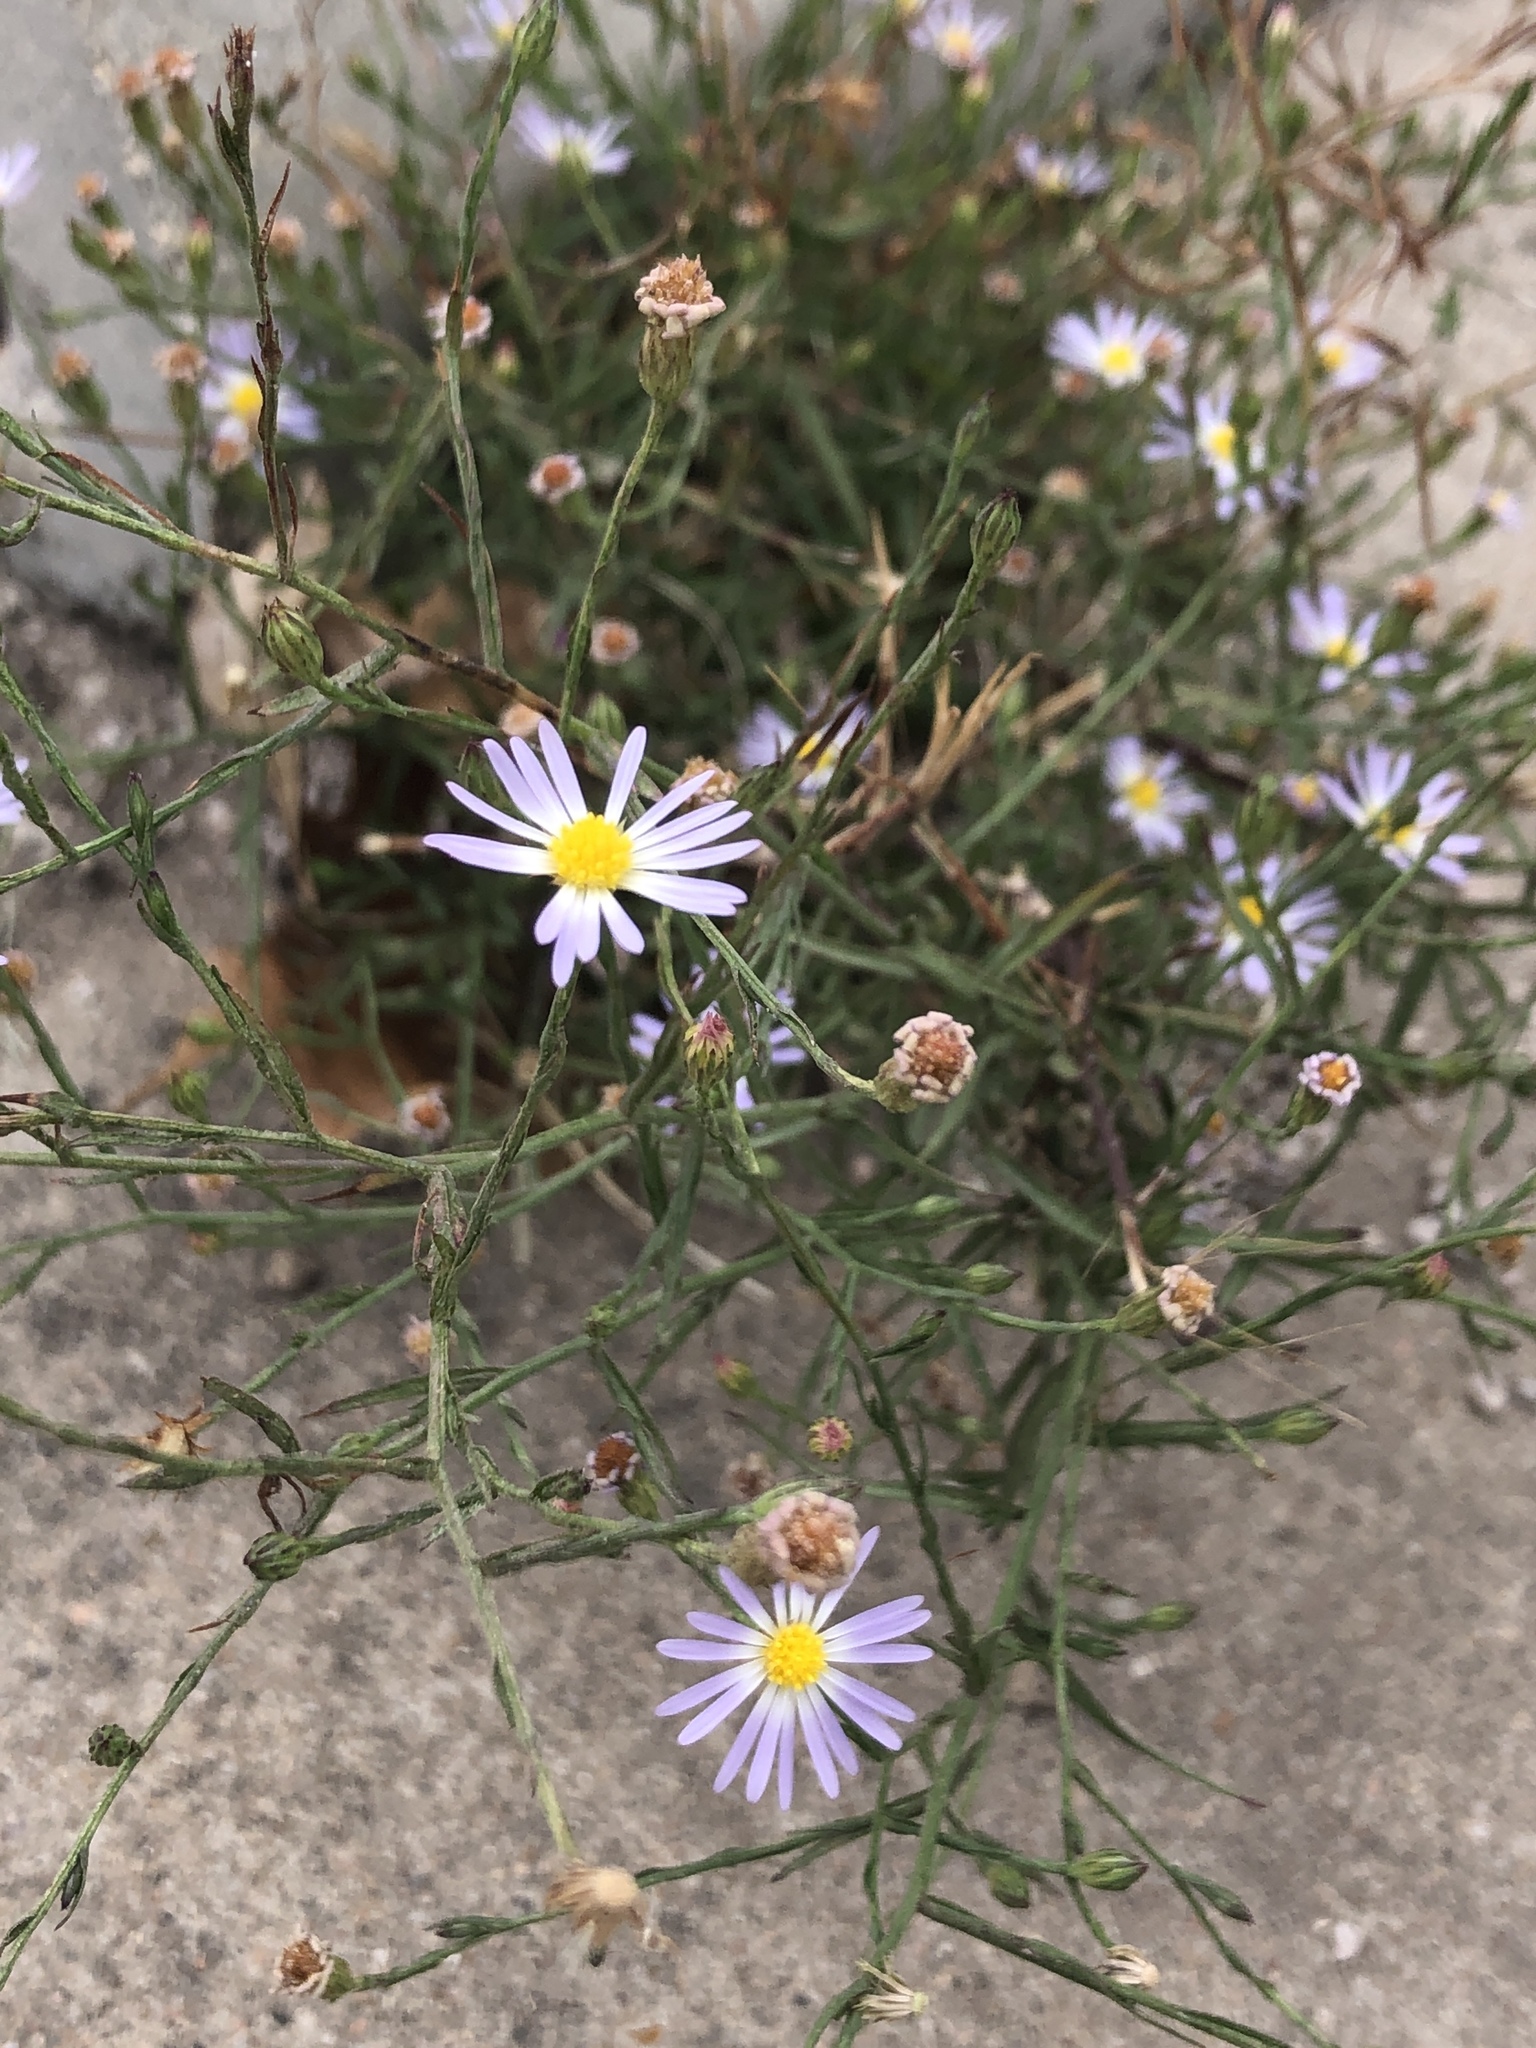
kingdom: Plantae
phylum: Tracheophyta
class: Magnoliopsida
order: Asterales
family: Asteraceae
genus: Symphyotrichum
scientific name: Symphyotrichum divaricatum
